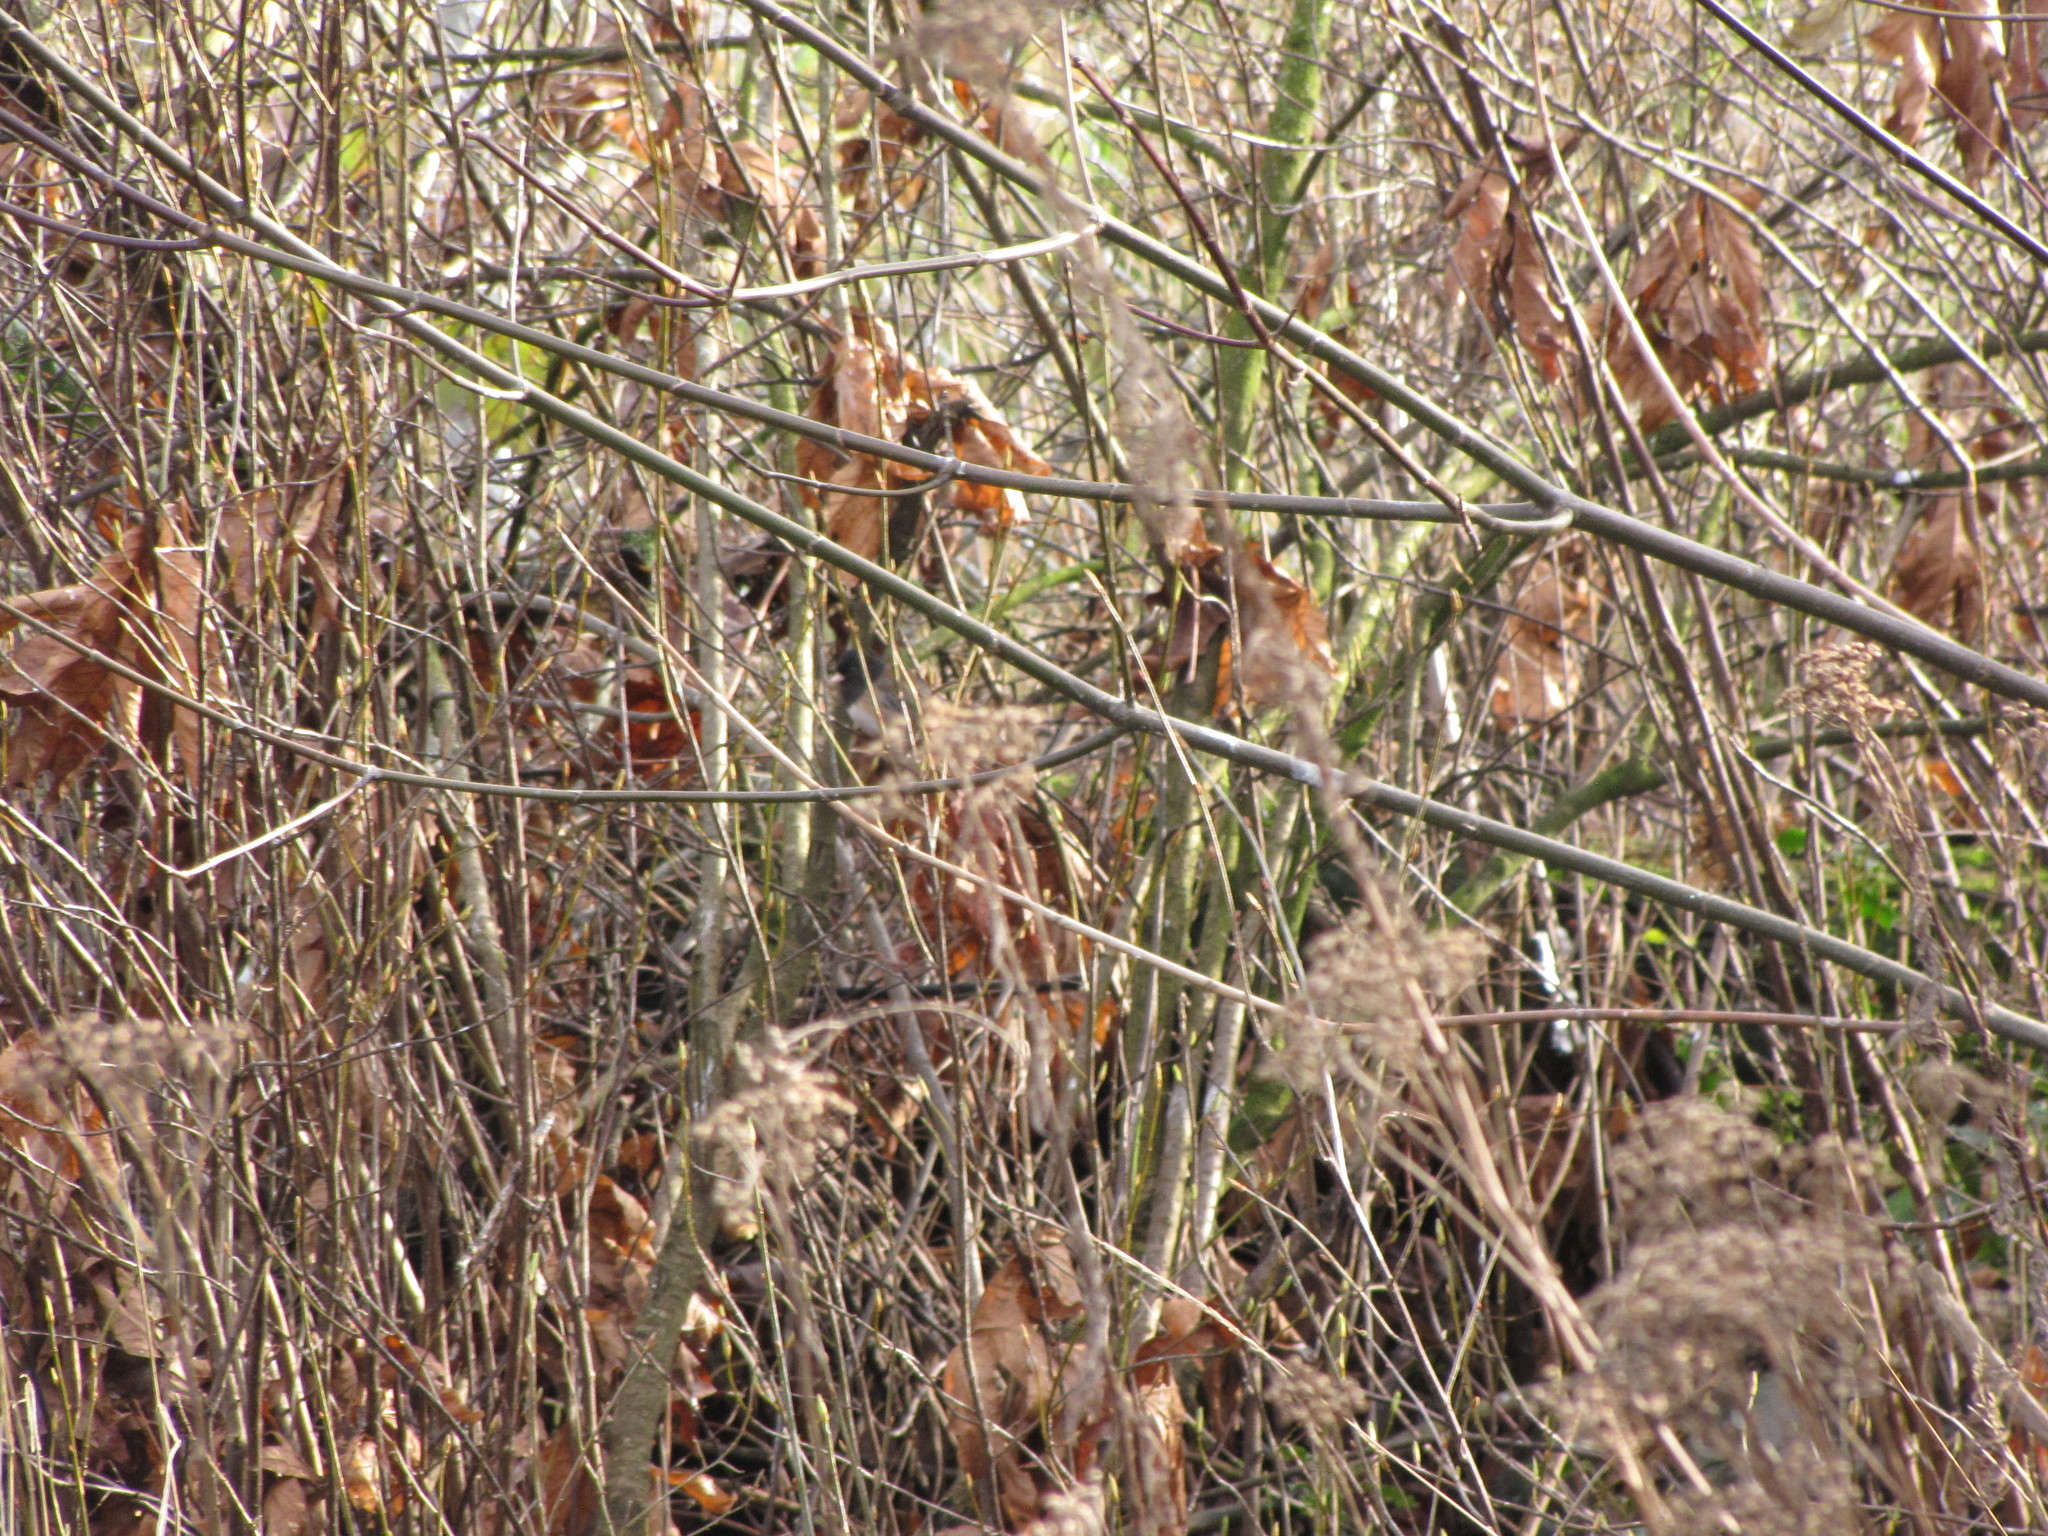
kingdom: Animalia
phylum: Chordata
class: Aves
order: Passeriformes
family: Passerellidae
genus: Junco
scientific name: Junco hyemalis
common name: Dark-eyed junco
